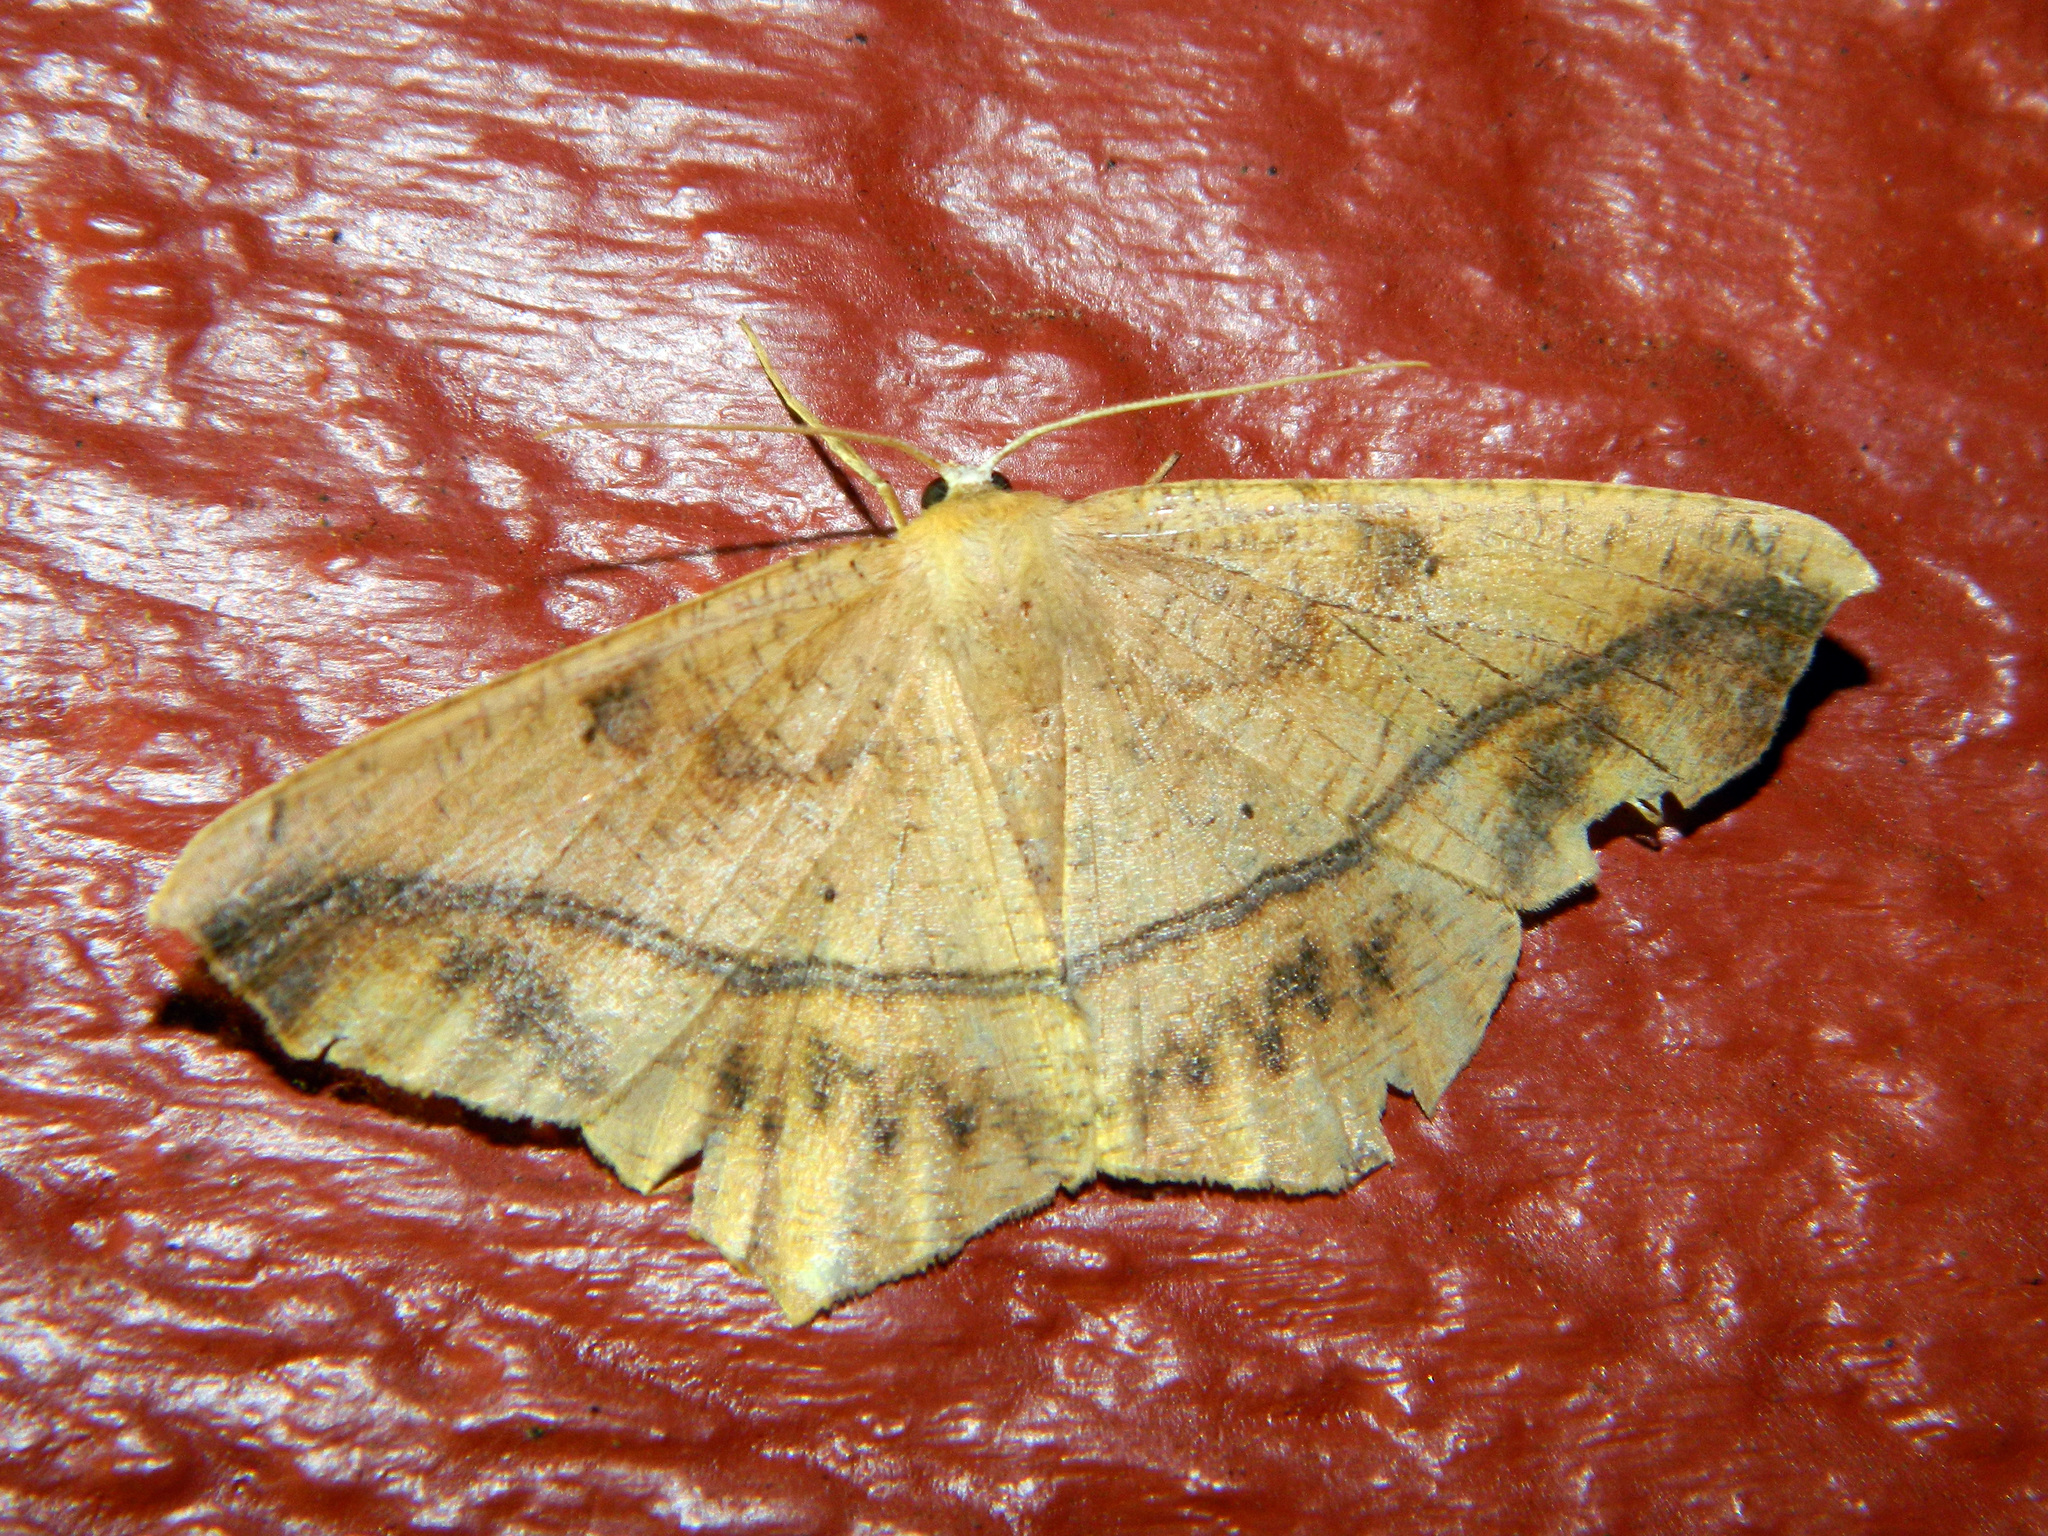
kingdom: Animalia
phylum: Arthropoda
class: Insecta
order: Lepidoptera
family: Geometridae
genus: Prochoerodes
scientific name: Prochoerodes lineola
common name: Large maple spanworm
